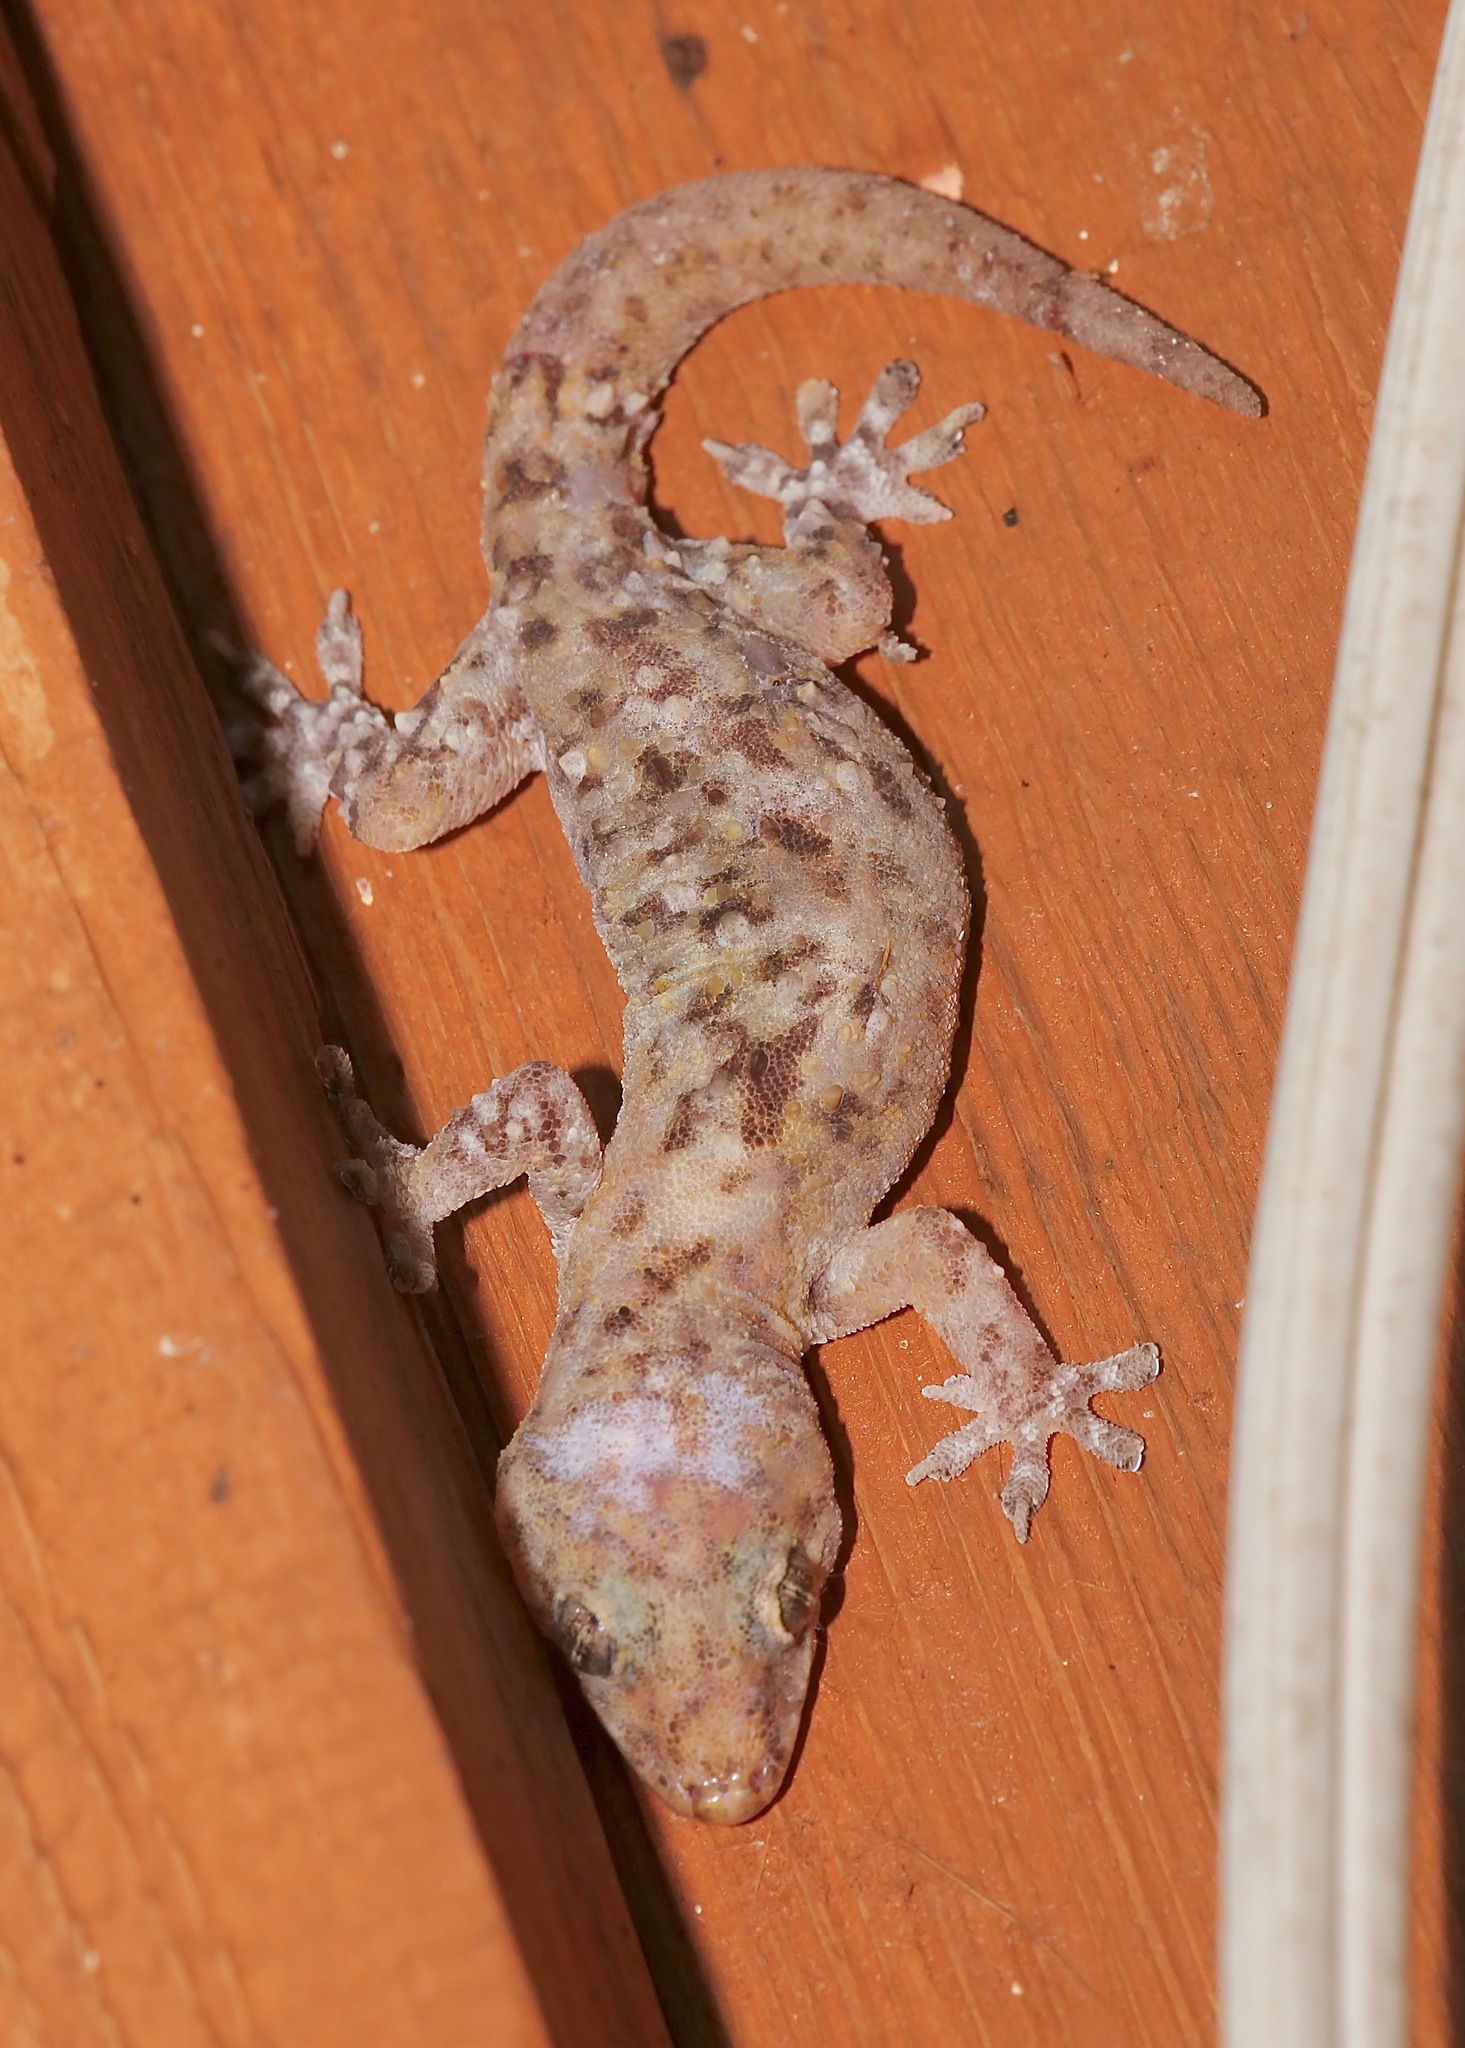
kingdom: Animalia
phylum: Chordata
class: Squamata
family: Gekkonidae
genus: Hemidactylus
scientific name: Hemidactylus turcicus
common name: Turkish gecko
